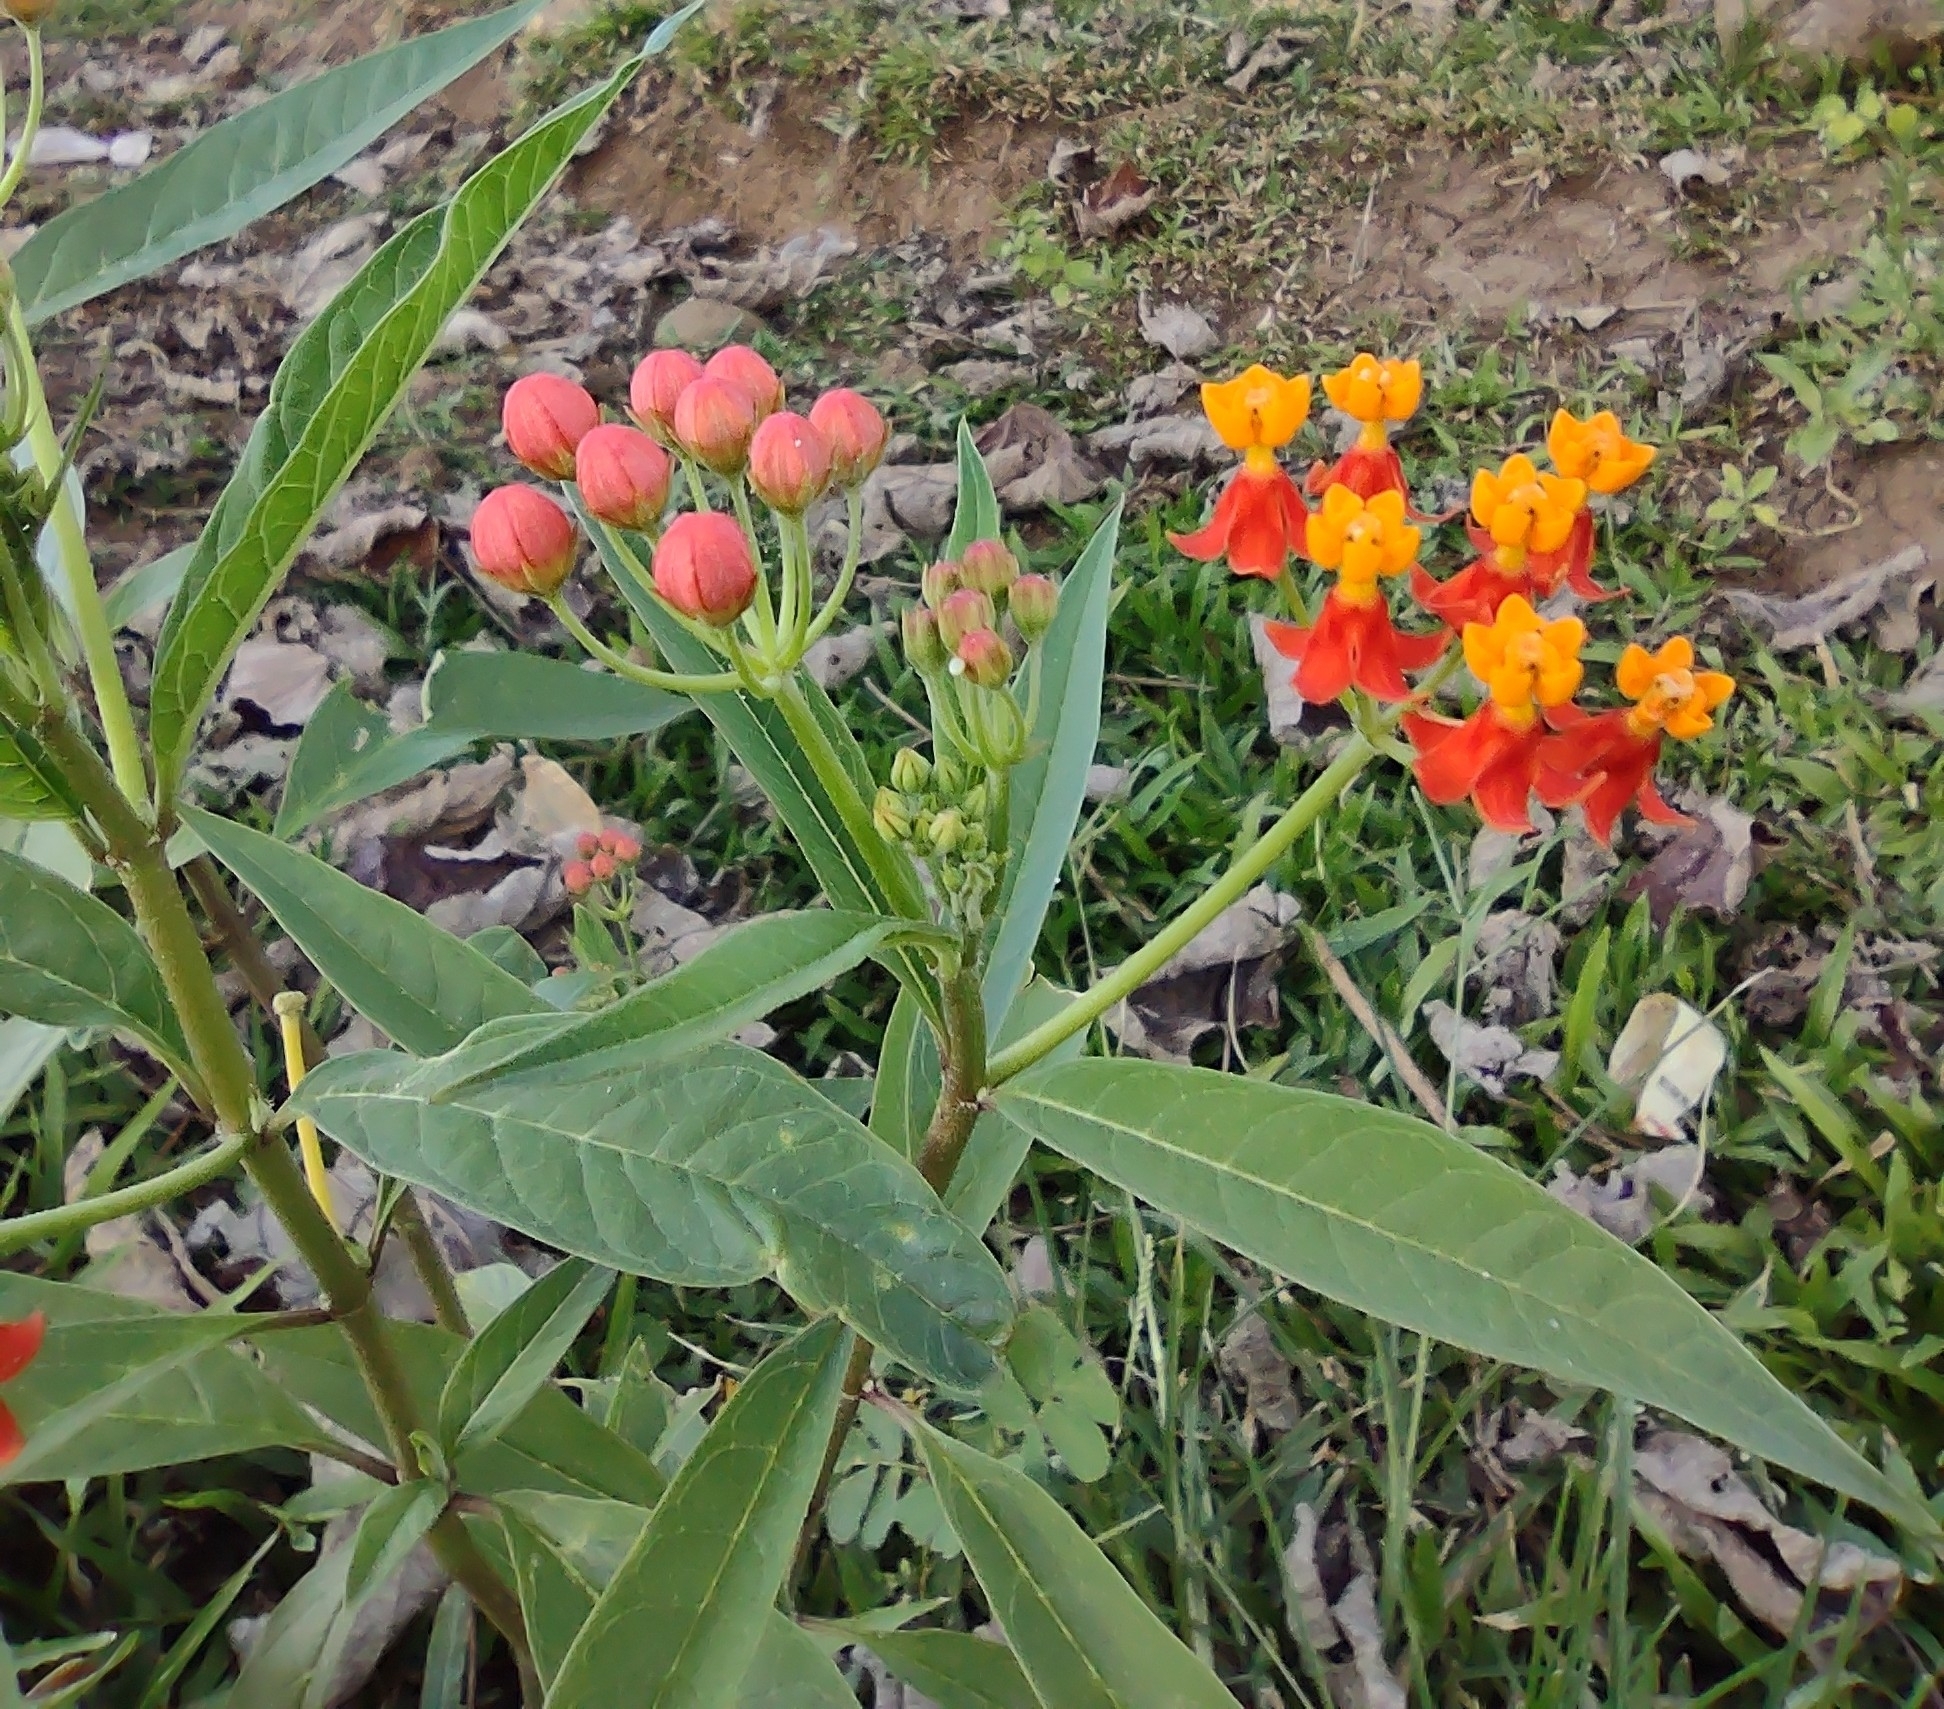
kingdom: Plantae
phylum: Tracheophyta
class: Magnoliopsida
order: Gentianales
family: Apocynaceae
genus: Asclepias
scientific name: Asclepias curassavica
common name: Bloodflower
